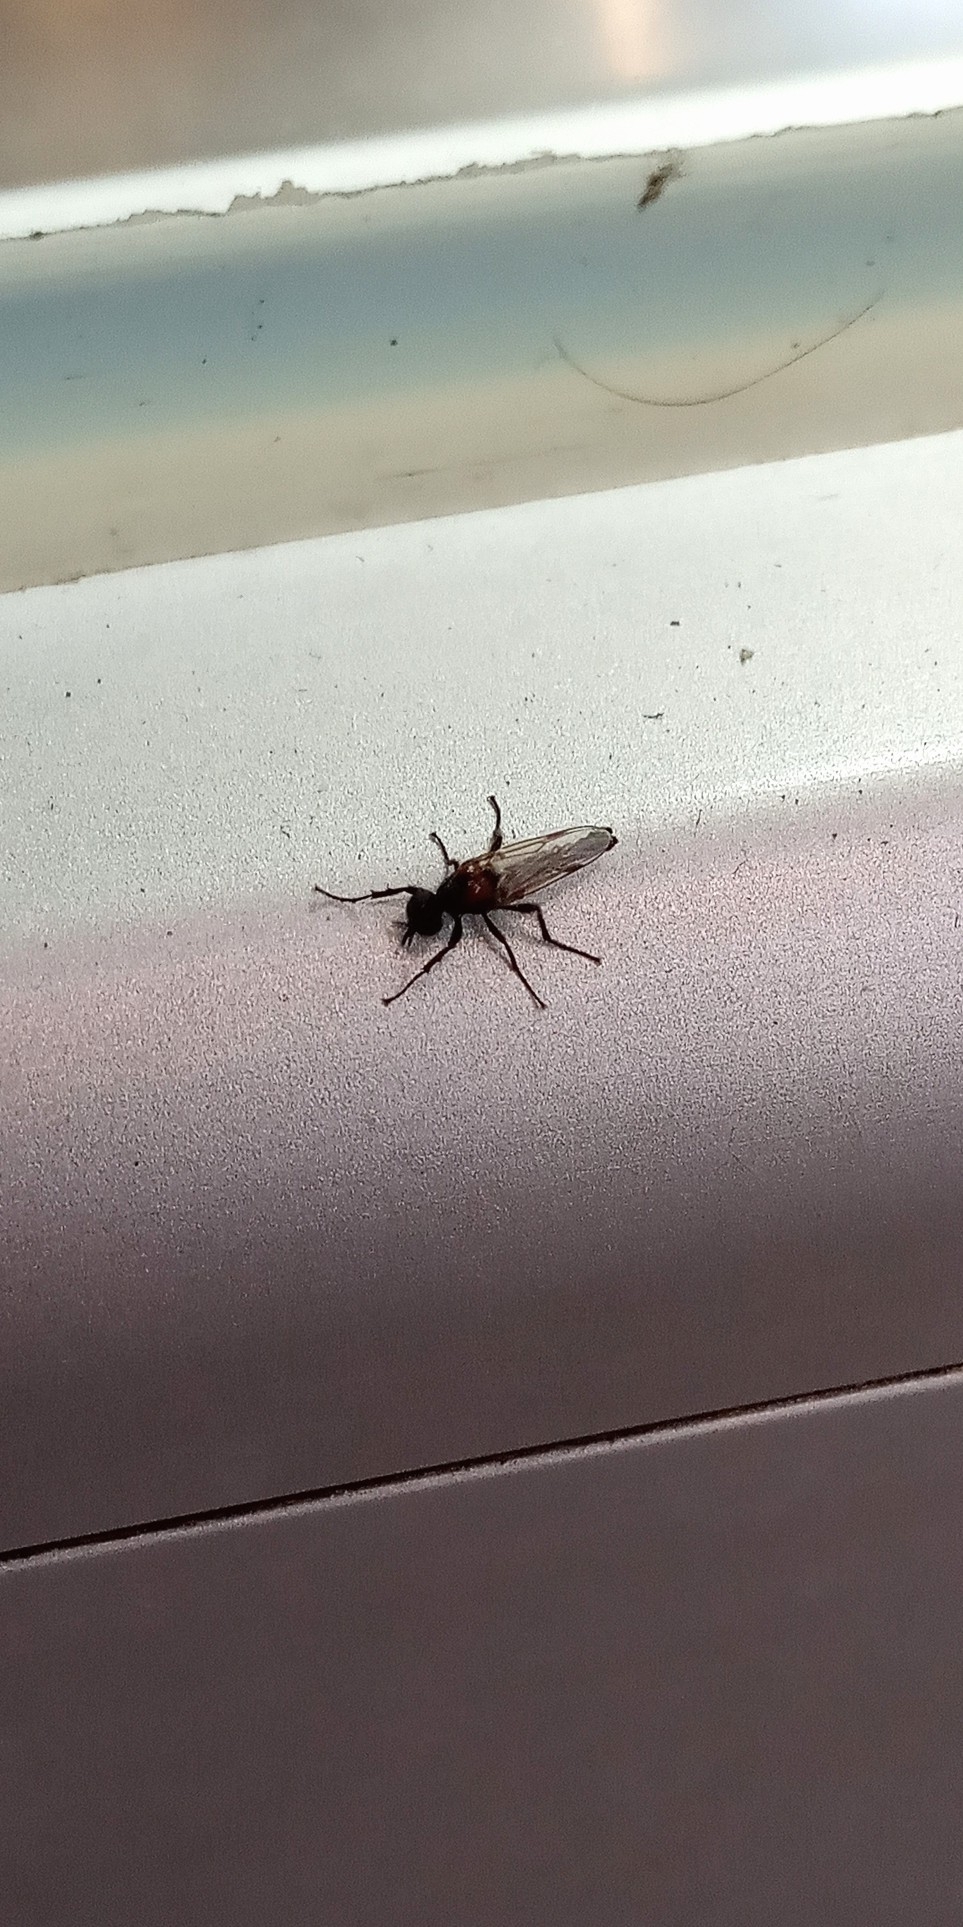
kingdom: Animalia
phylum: Arthropoda
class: Insecta
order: Diptera
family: Bibionidae
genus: Dilophus
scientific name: Dilophus pectoralis
